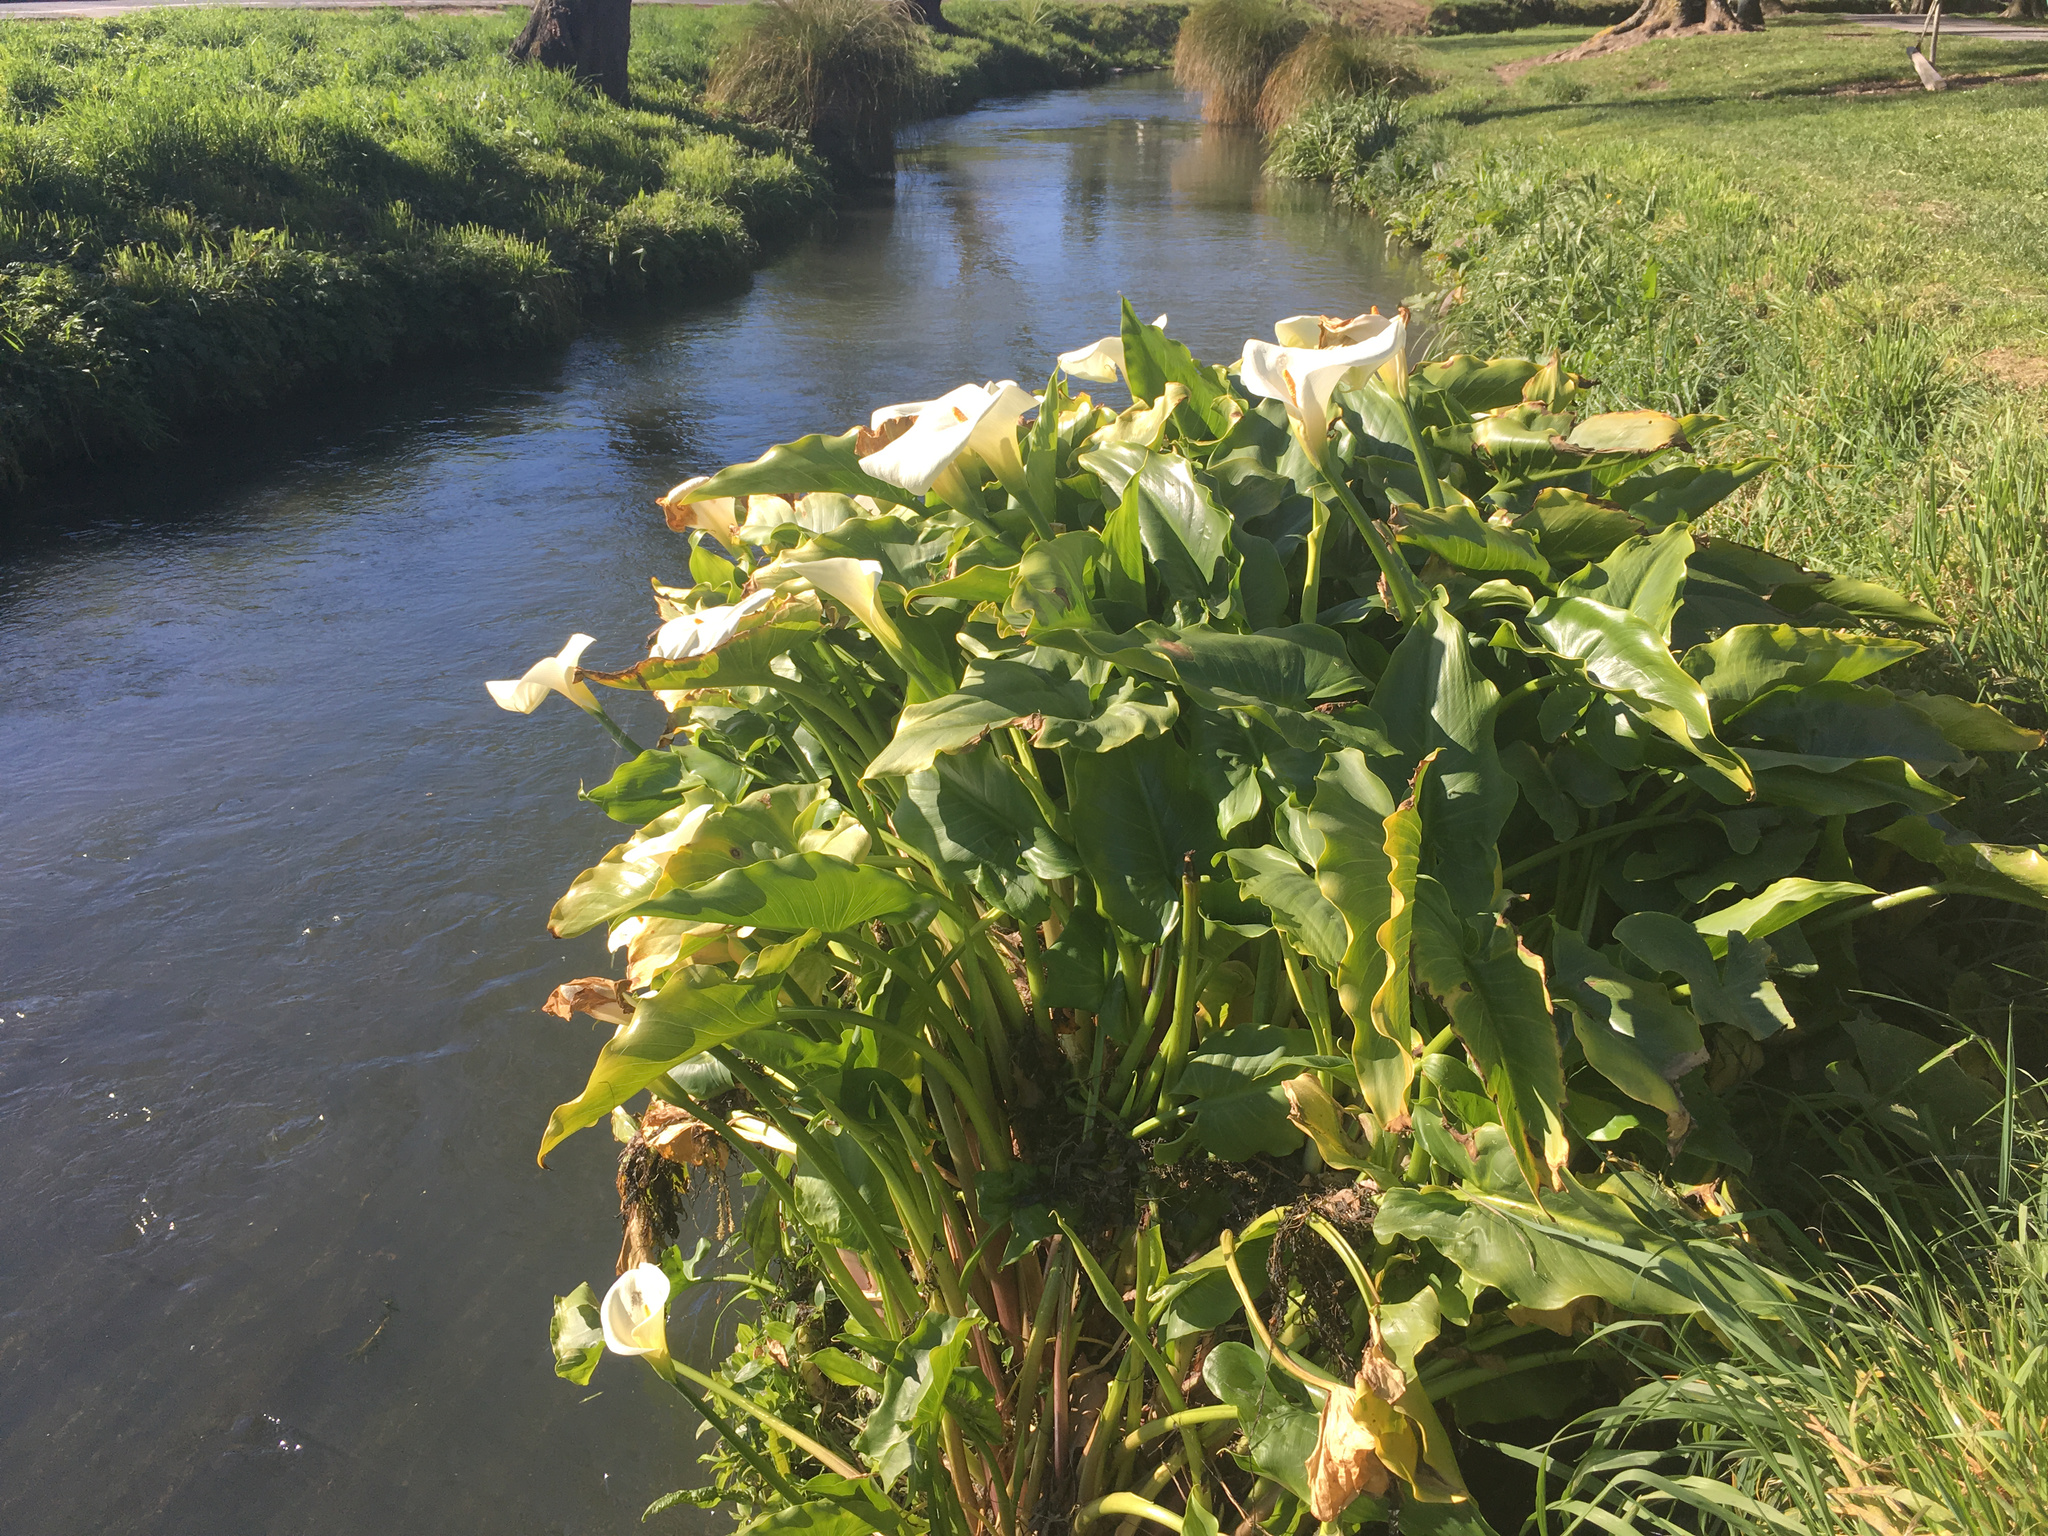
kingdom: Plantae
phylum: Tracheophyta
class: Liliopsida
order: Alismatales
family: Araceae
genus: Zantedeschia
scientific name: Zantedeschia aethiopica
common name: Altar-lily
